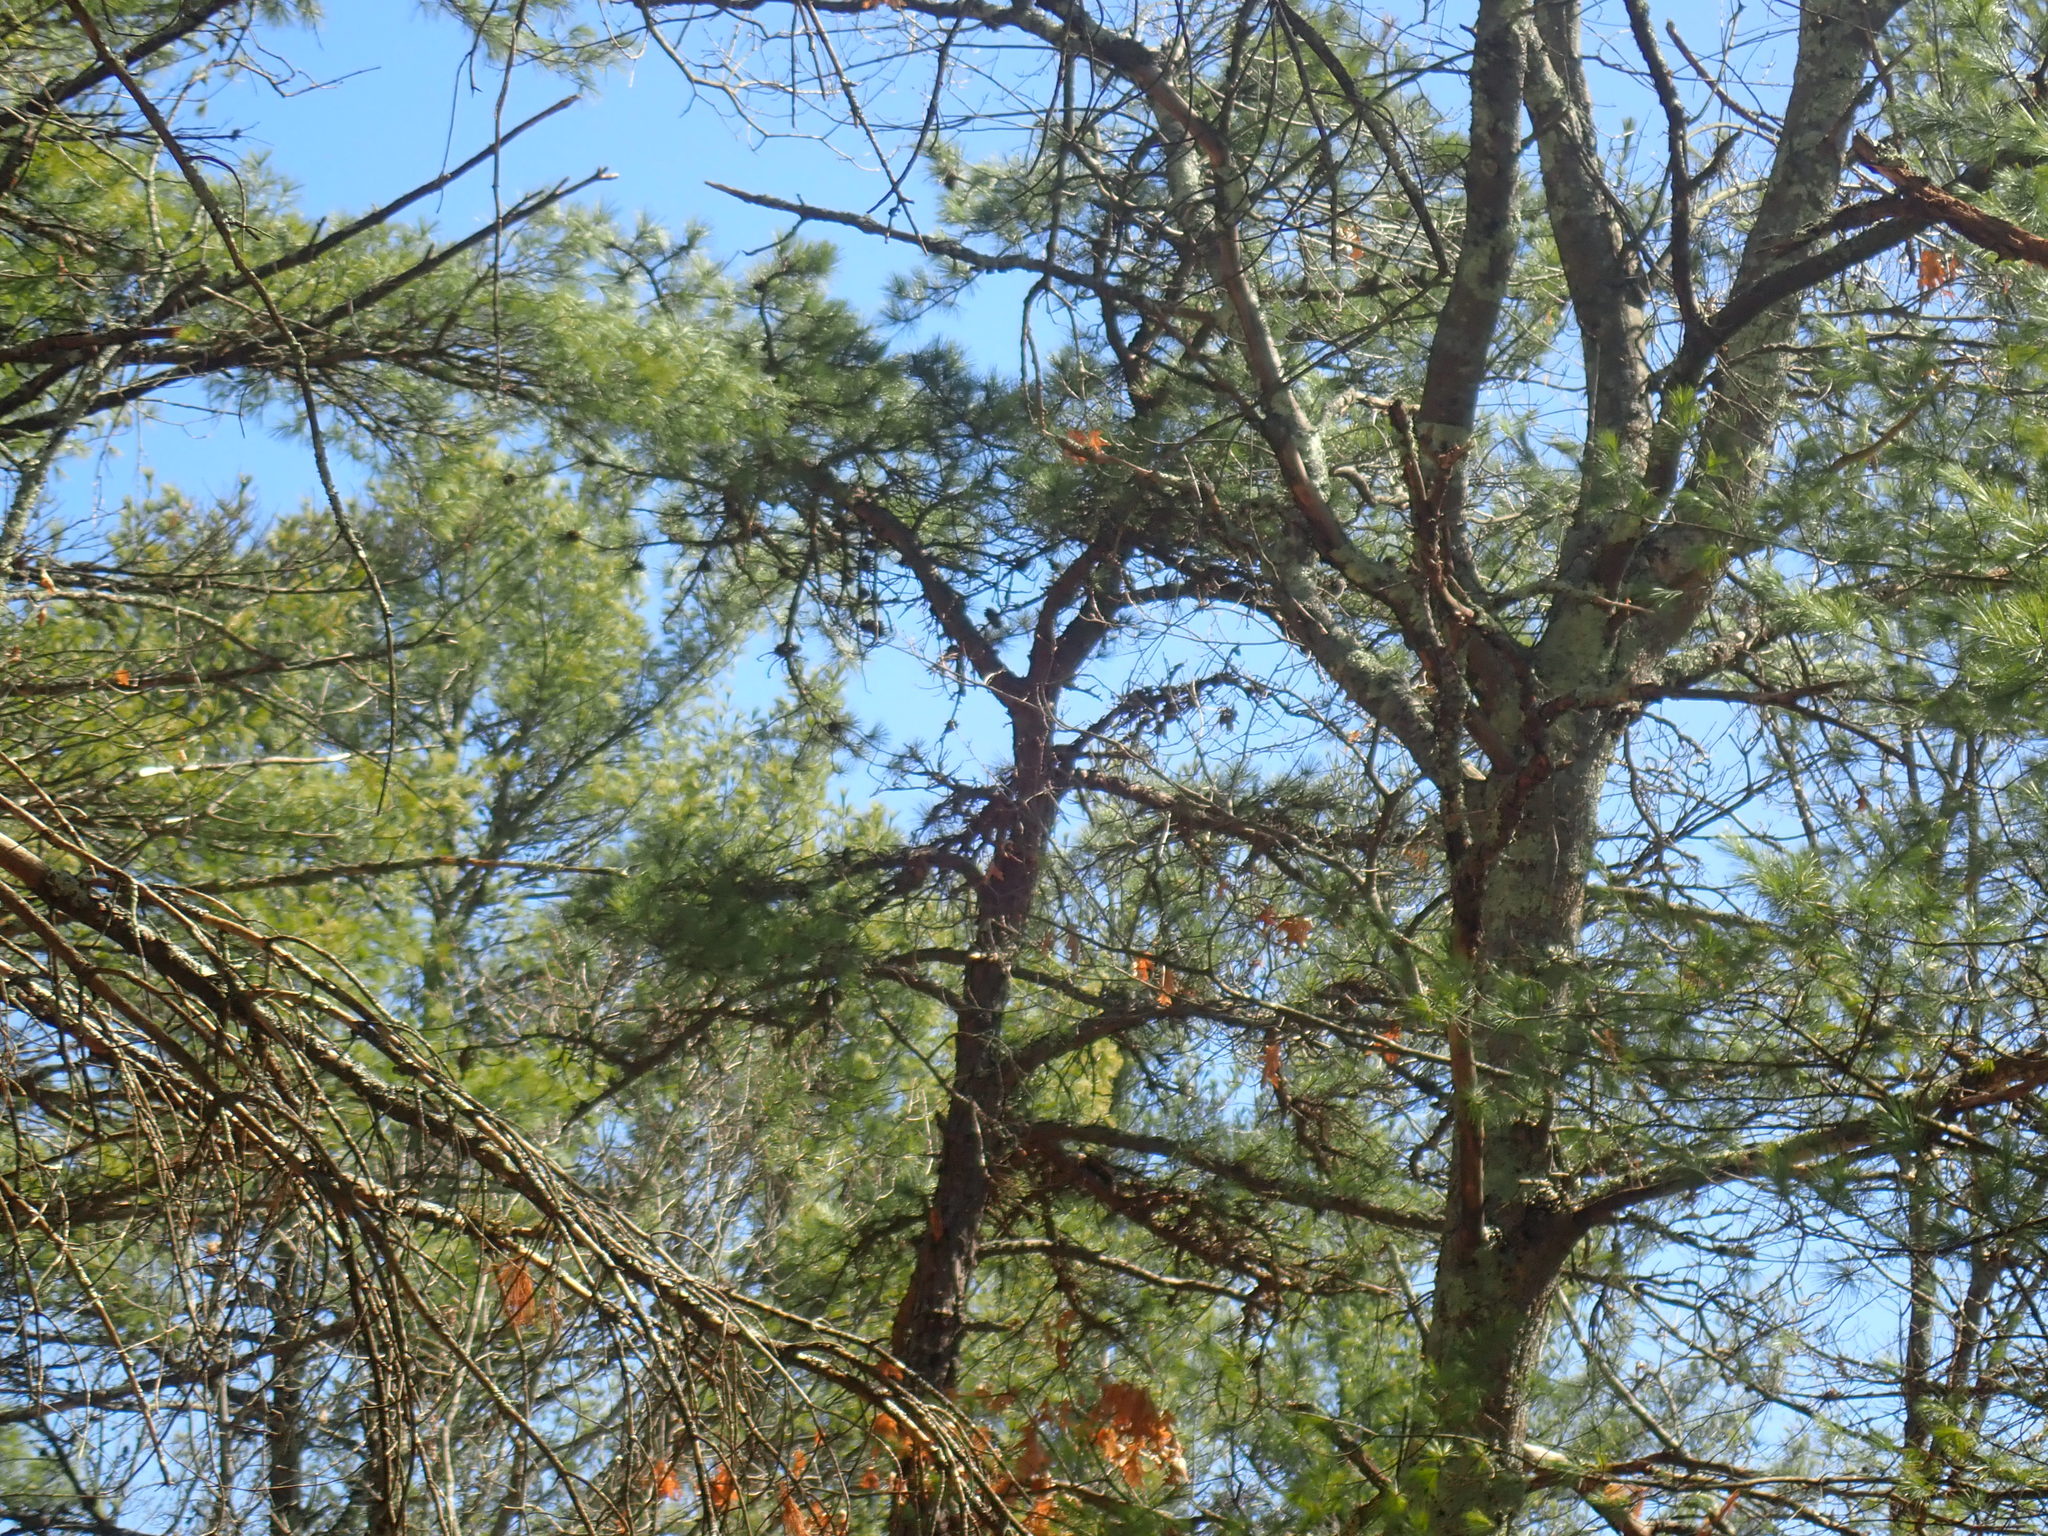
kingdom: Plantae
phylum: Tracheophyta
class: Pinopsida
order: Pinales
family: Pinaceae
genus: Pinus
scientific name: Pinus rigida
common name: Pitch pine
